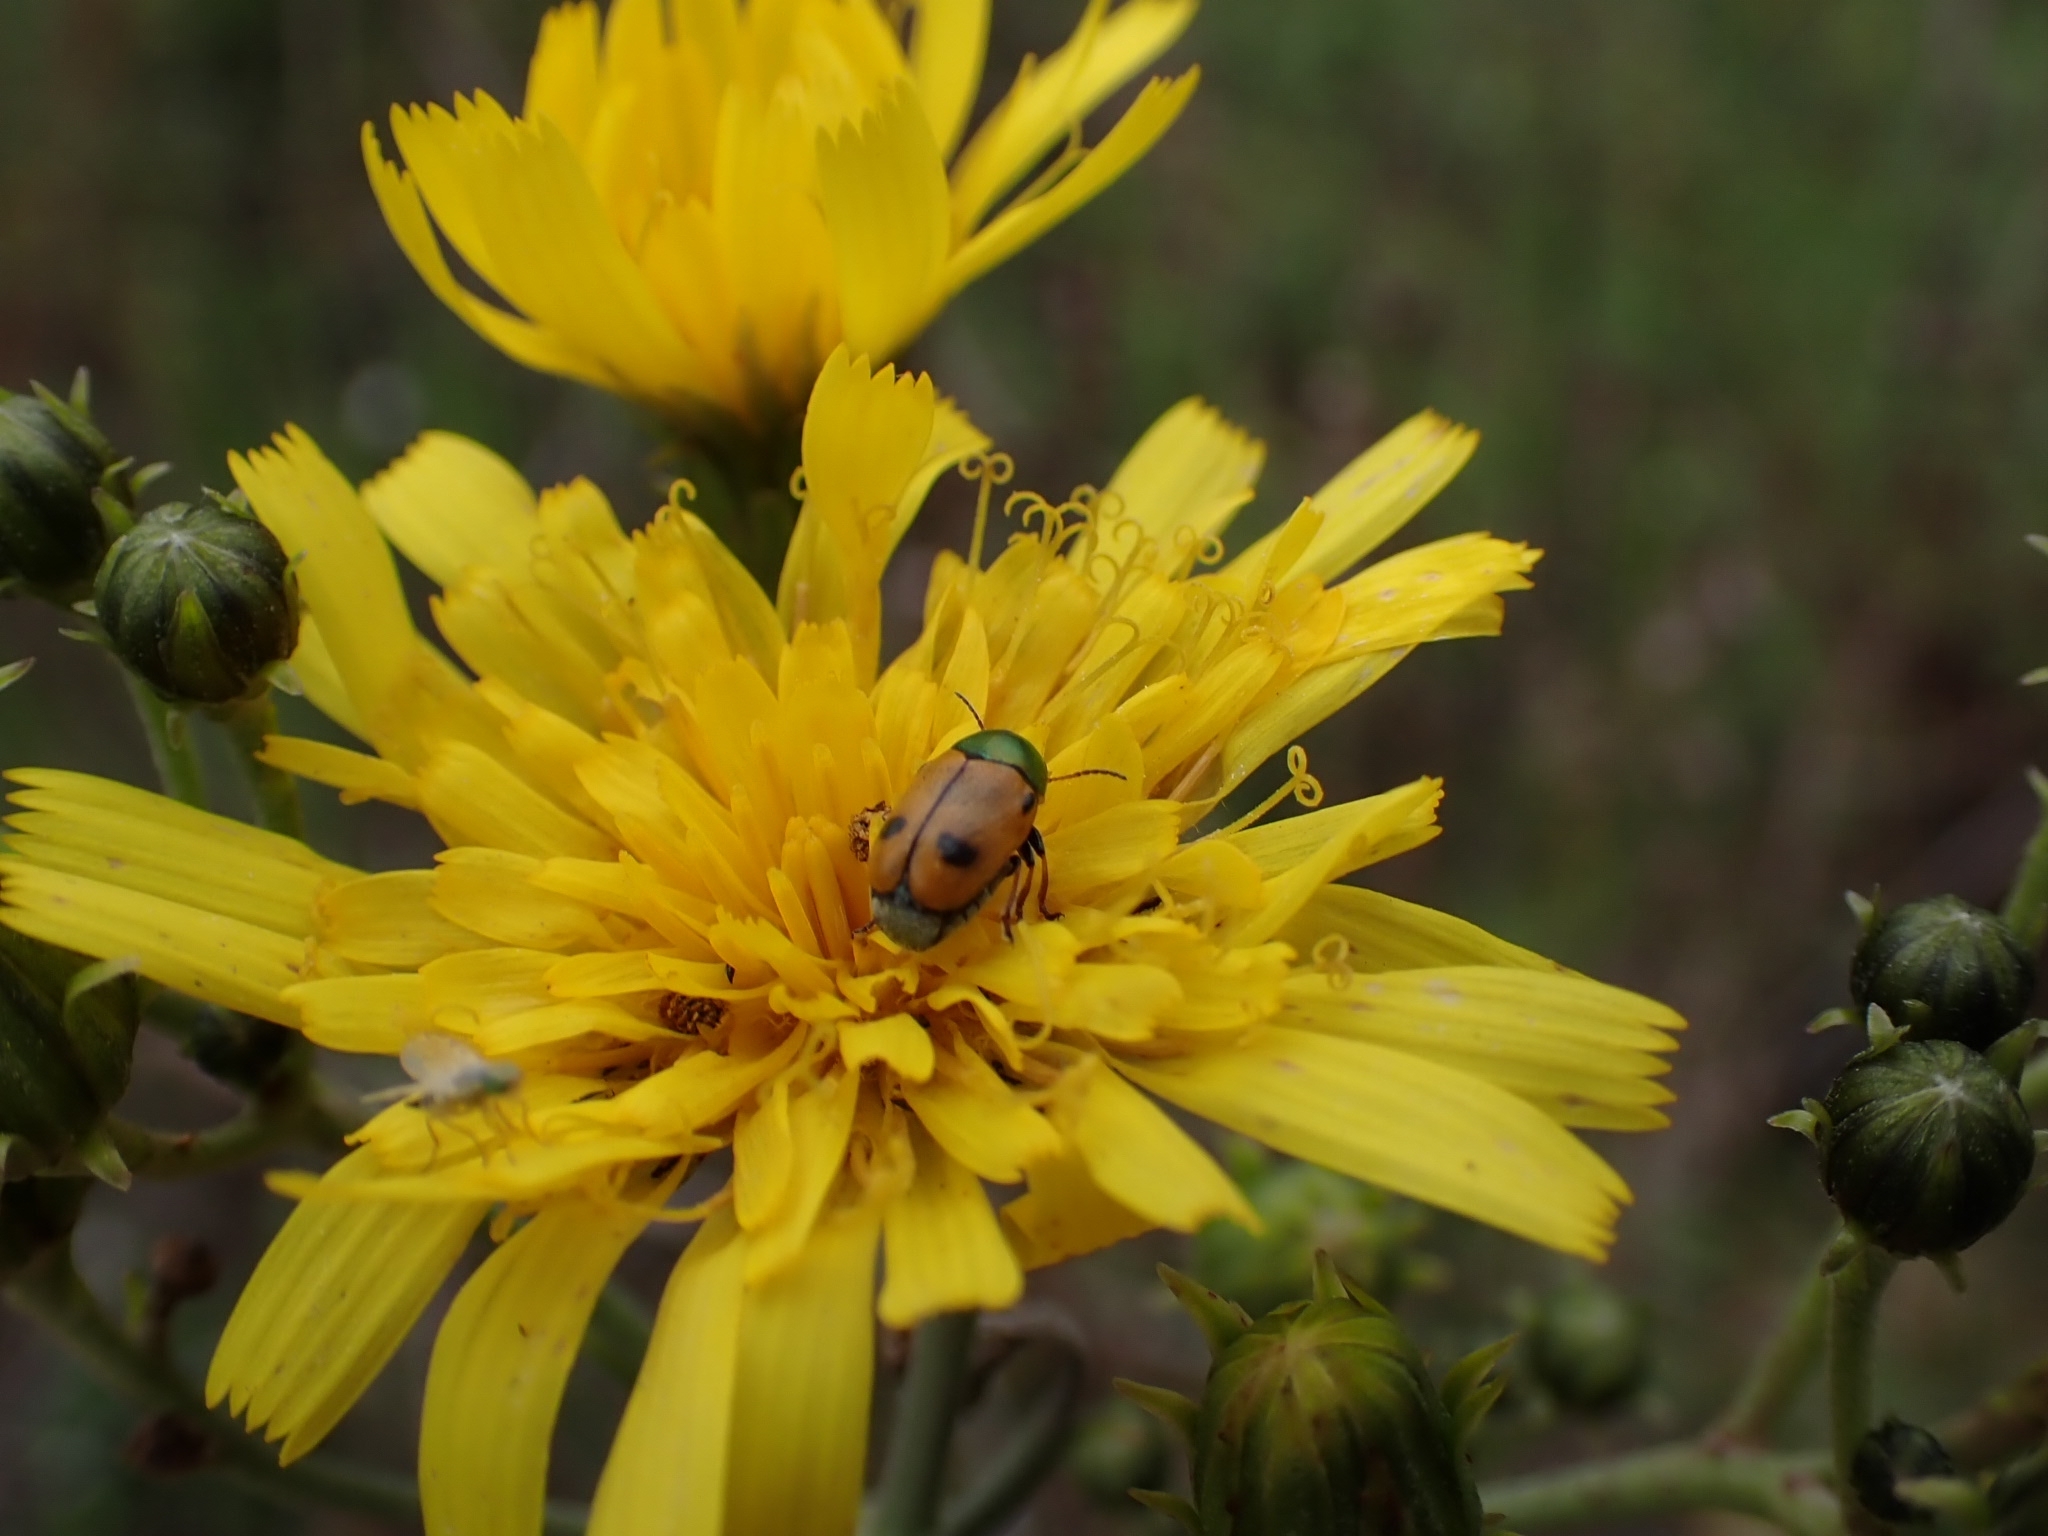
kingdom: Animalia
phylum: Arthropoda
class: Insecta
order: Coleoptera
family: Chrysomelidae
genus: Cryptocephalus
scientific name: Cryptocephalus laetus
